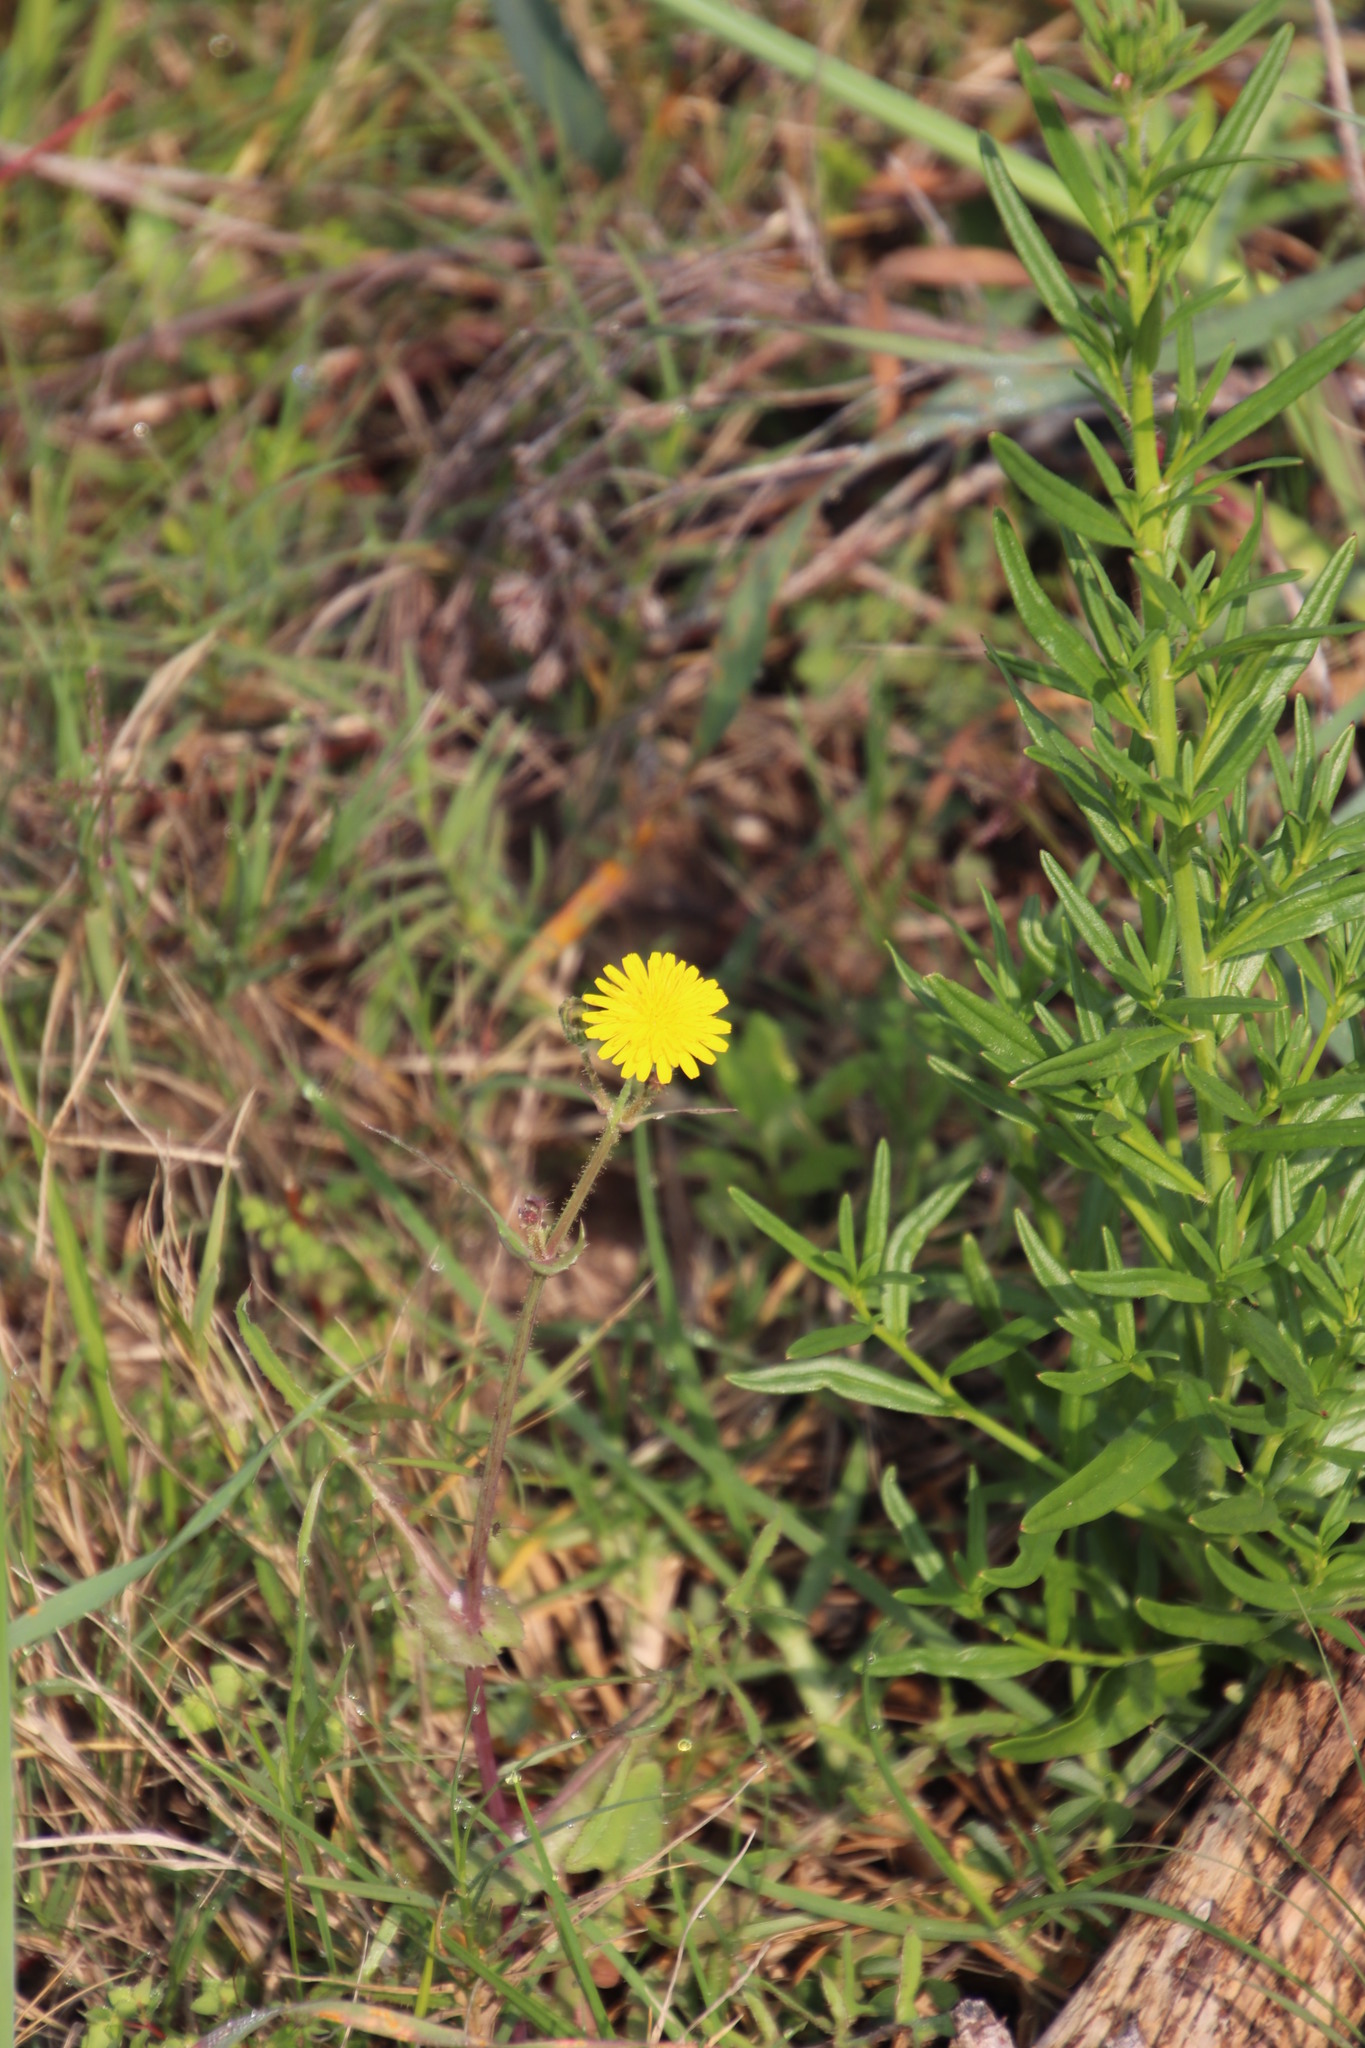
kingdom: Plantae
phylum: Tracheophyta
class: Magnoliopsida
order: Asterales
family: Asteraceae
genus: Sonchus
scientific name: Sonchus oleraceus
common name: Common sowthistle
